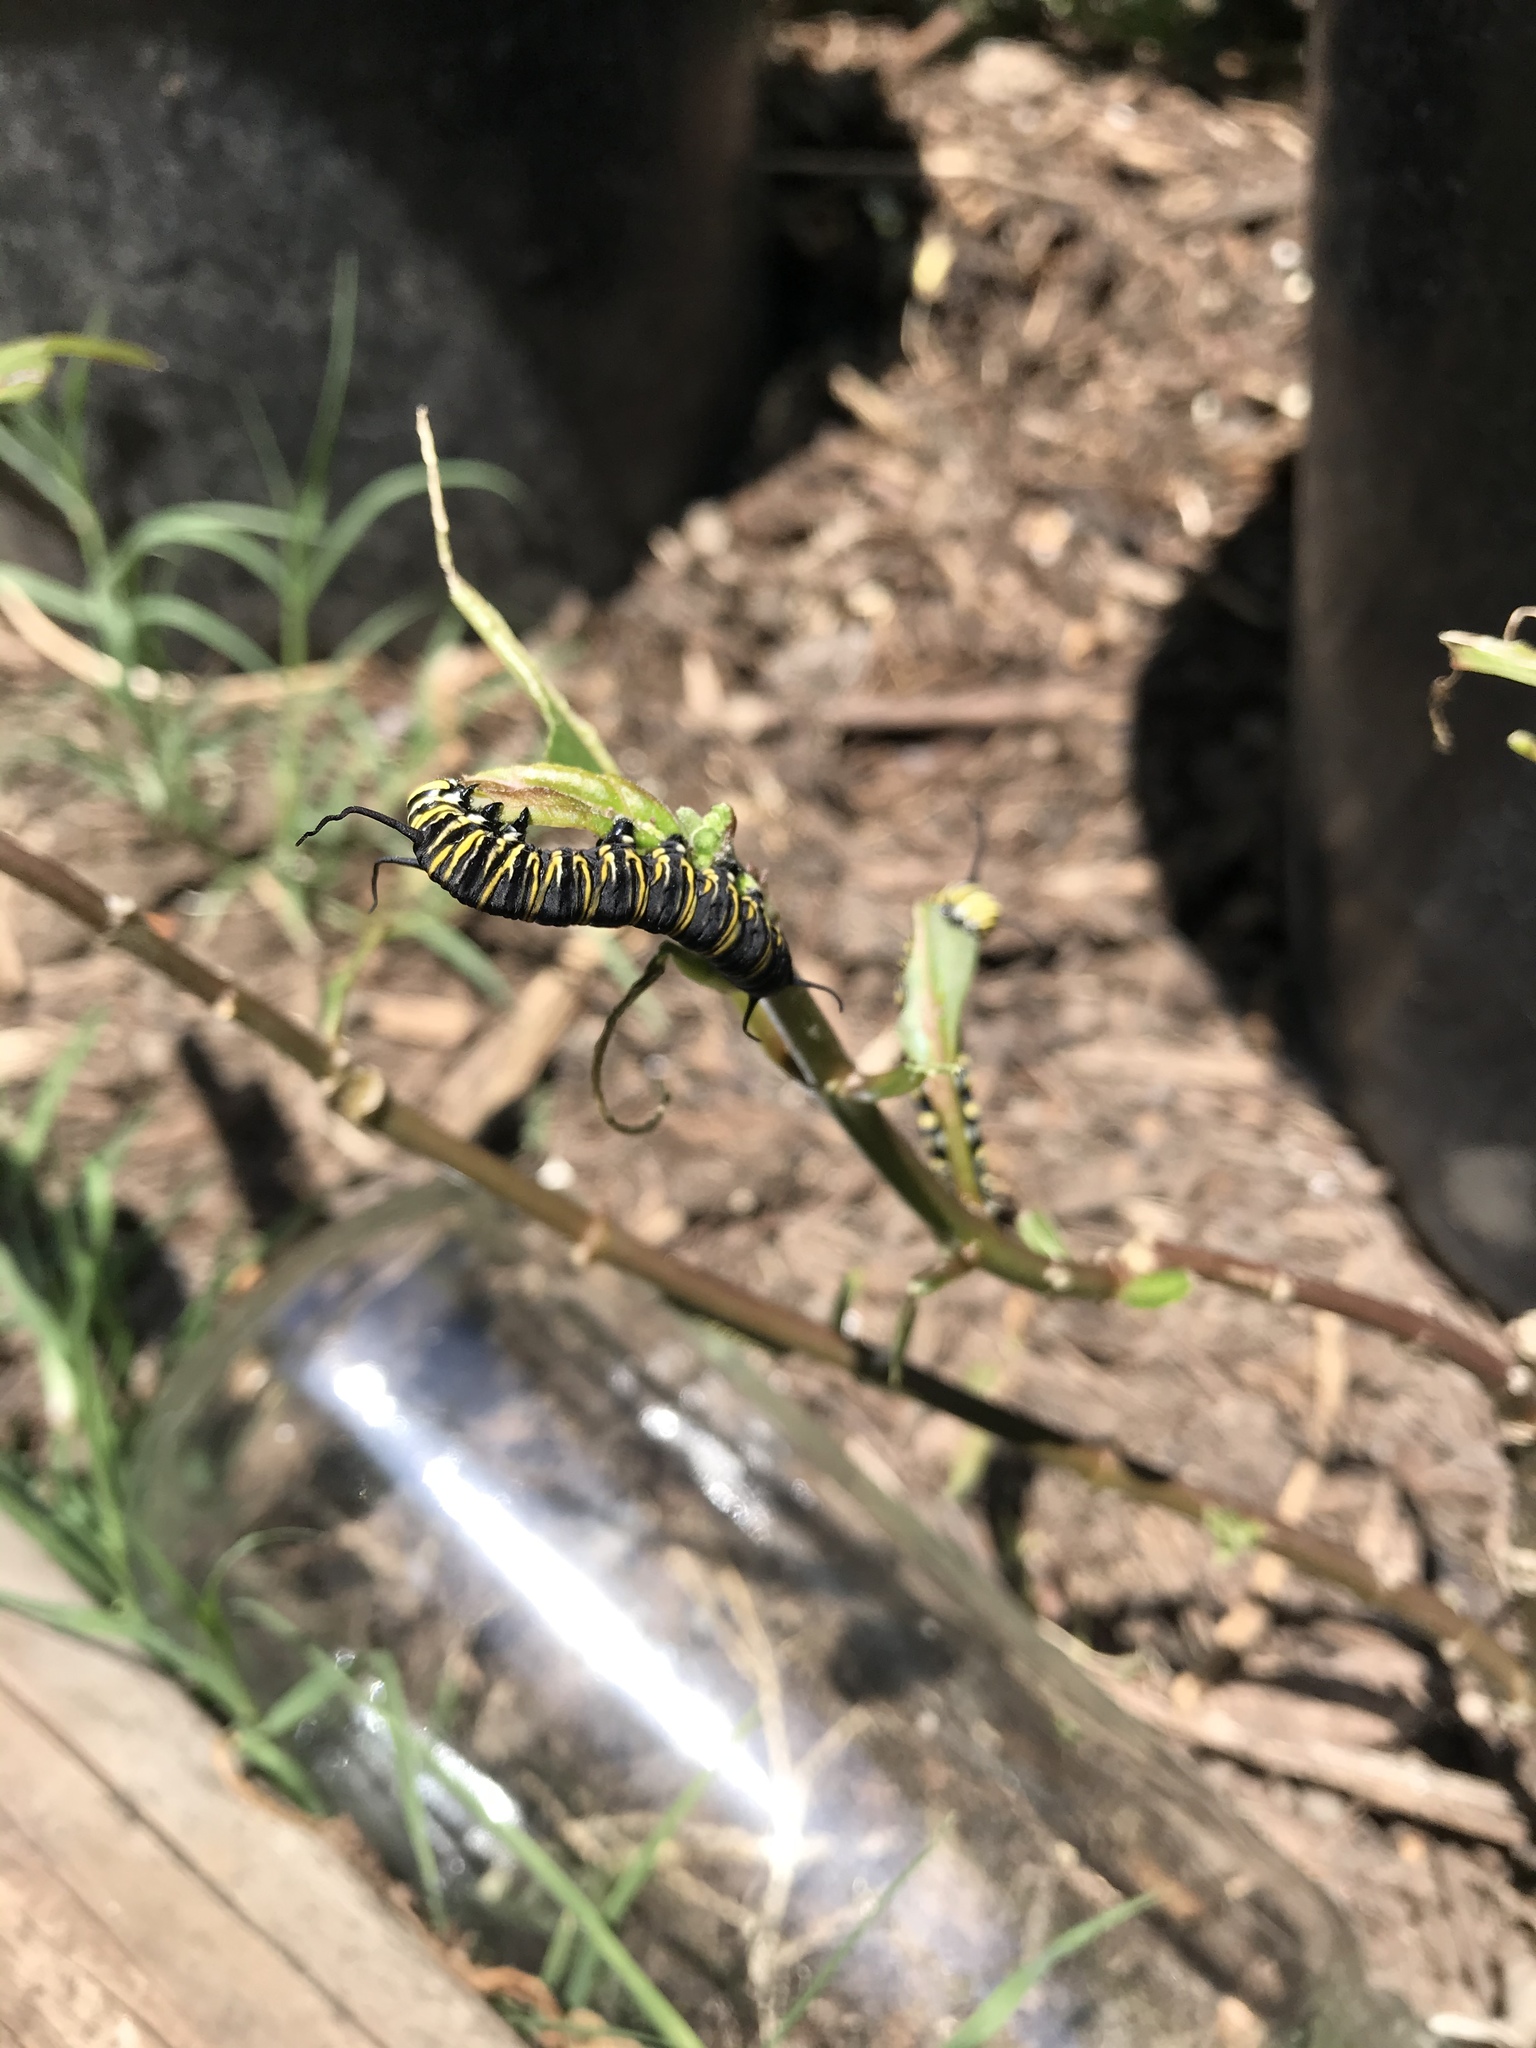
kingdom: Animalia
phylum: Arthropoda
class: Insecta
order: Lepidoptera
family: Nymphalidae
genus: Danaus
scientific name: Danaus plexippus
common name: Monarch
